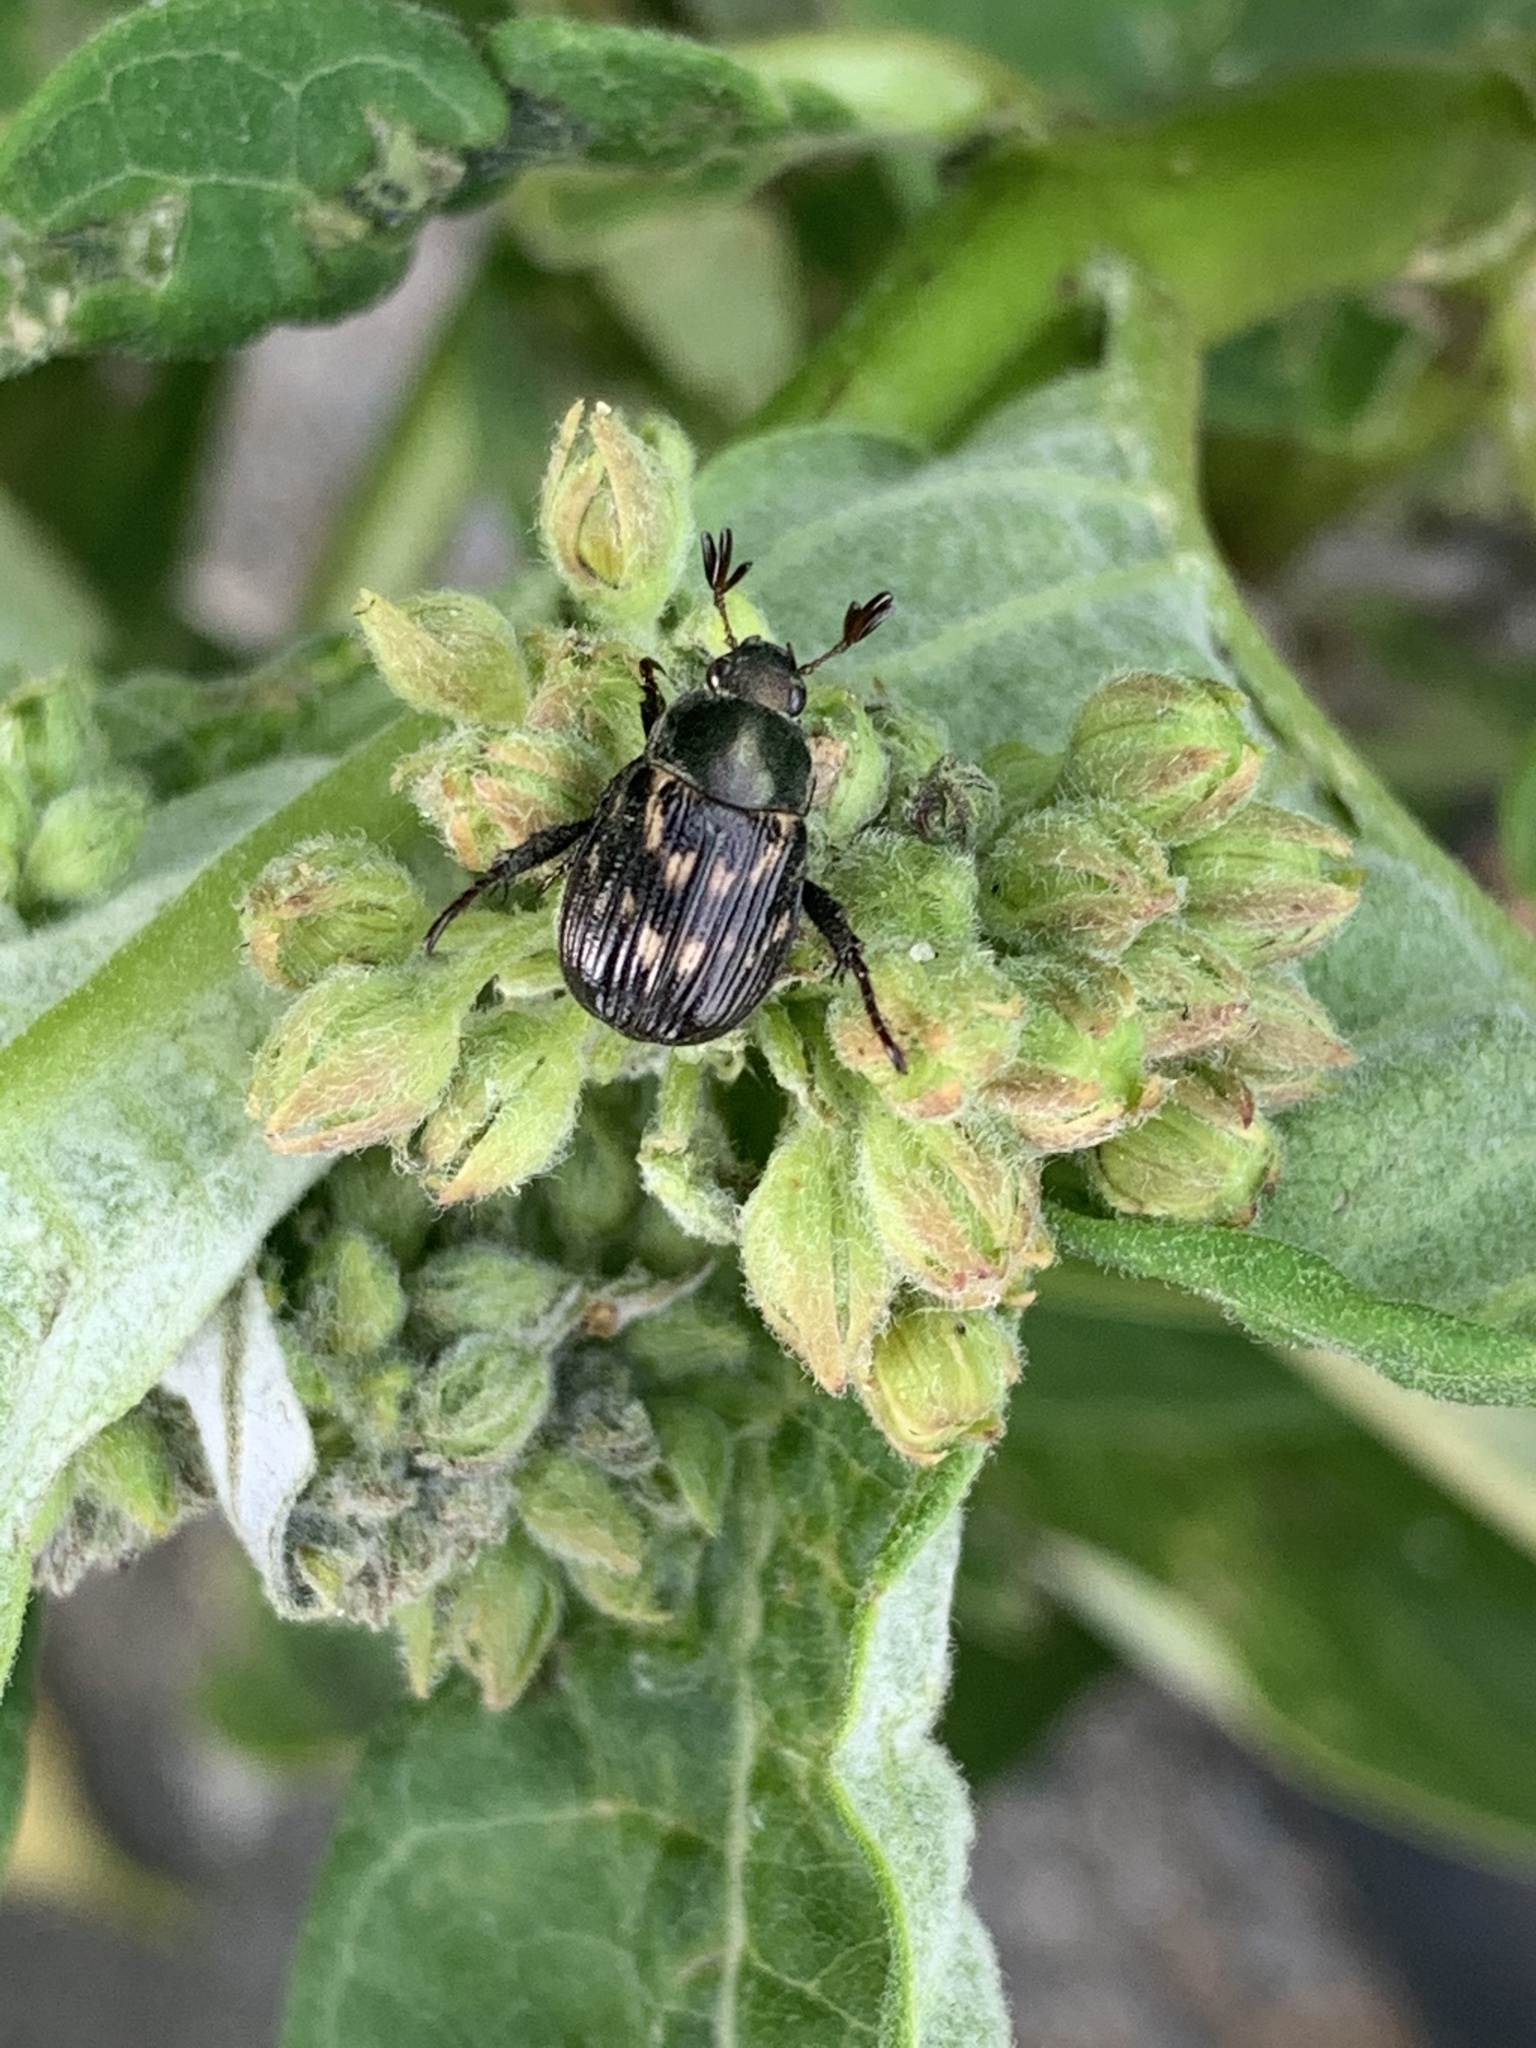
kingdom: Animalia
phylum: Arthropoda
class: Insecta
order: Coleoptera
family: Scarabaeidae
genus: Exomala
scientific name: Exomala orientalis
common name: Oriental beetle
